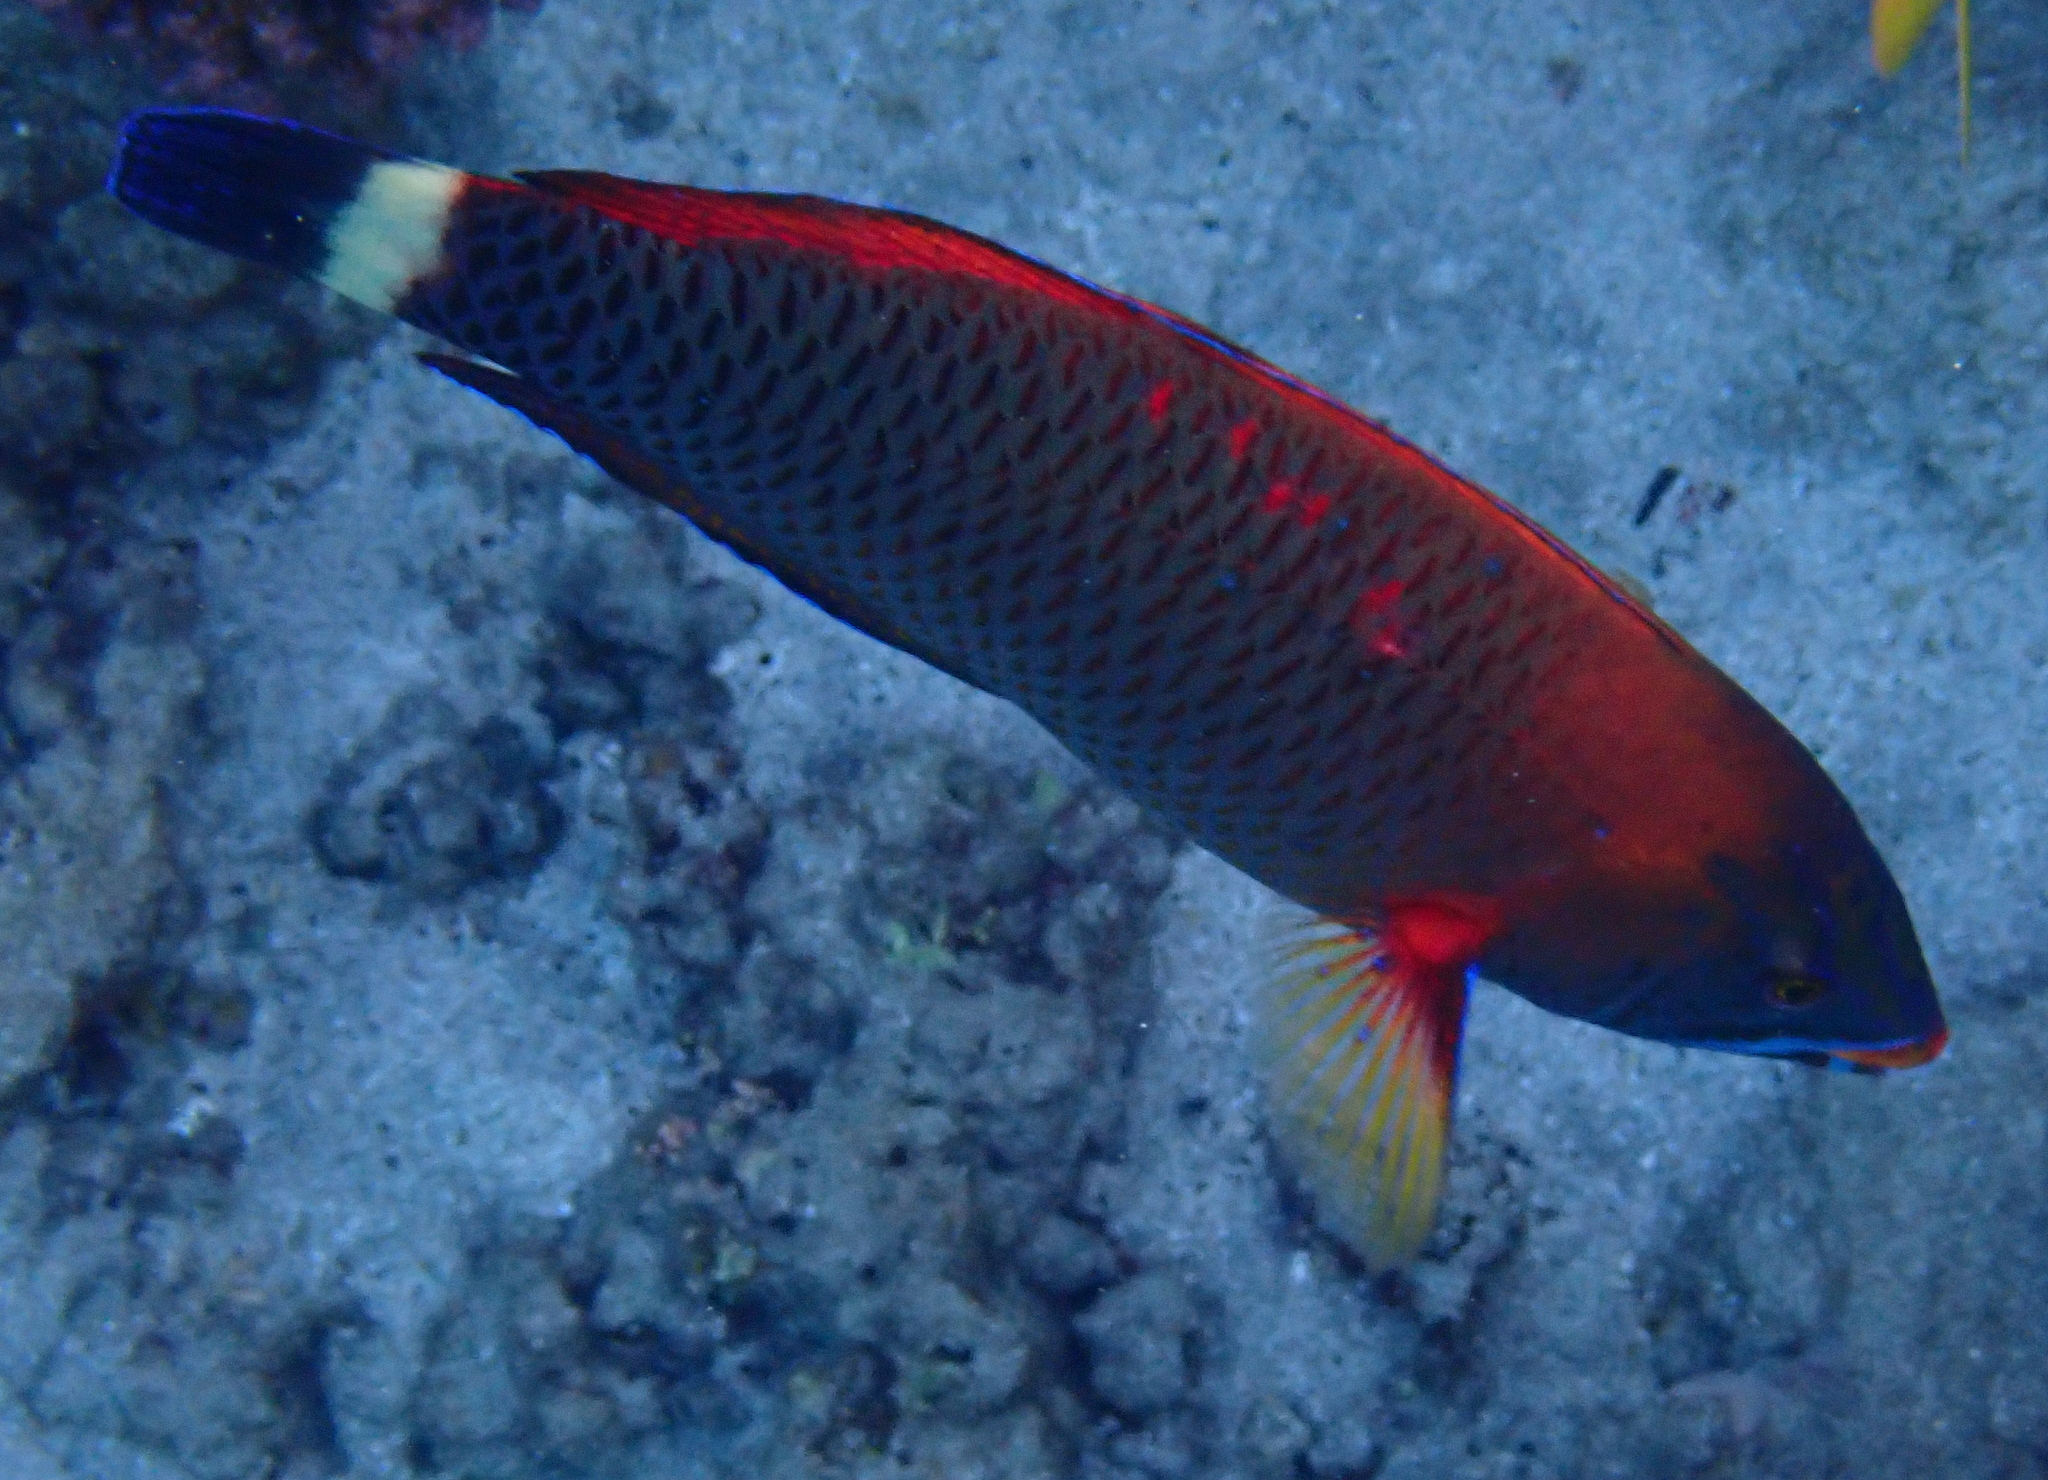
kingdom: Animalia
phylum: Chordata
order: Perciformes
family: Labridae
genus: Pseudodax
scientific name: Pseudodax moluccanus
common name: Chiseltooth wrasse
